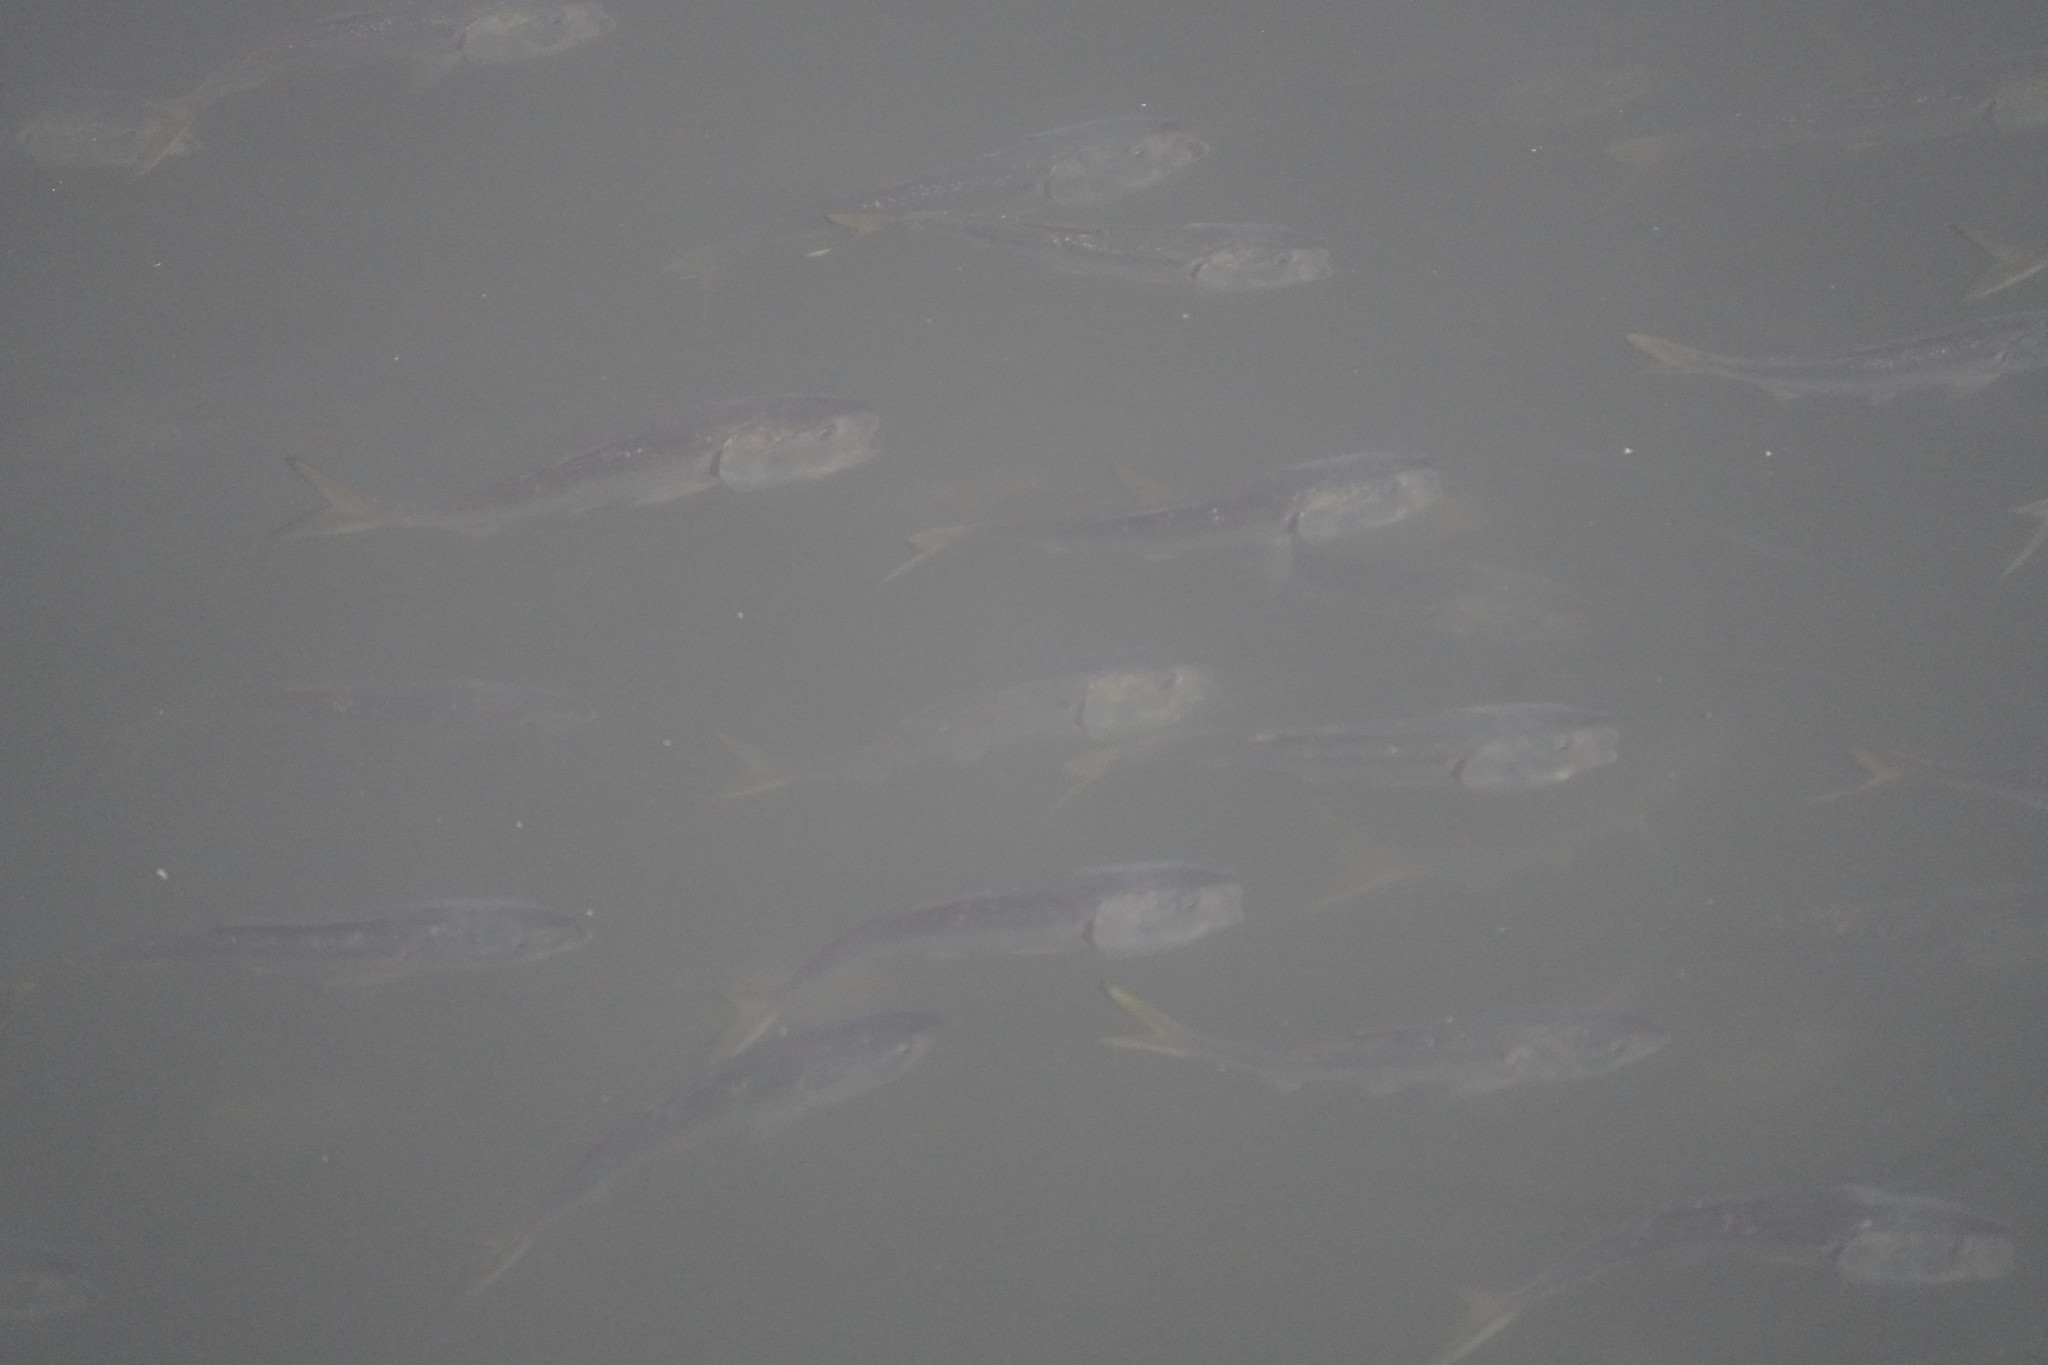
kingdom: Animalia
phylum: Chordata
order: Clupeiformes
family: Clupeidae
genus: Brevoortia
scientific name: Brevoortia tyrannus
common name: Atlantic menhaden
